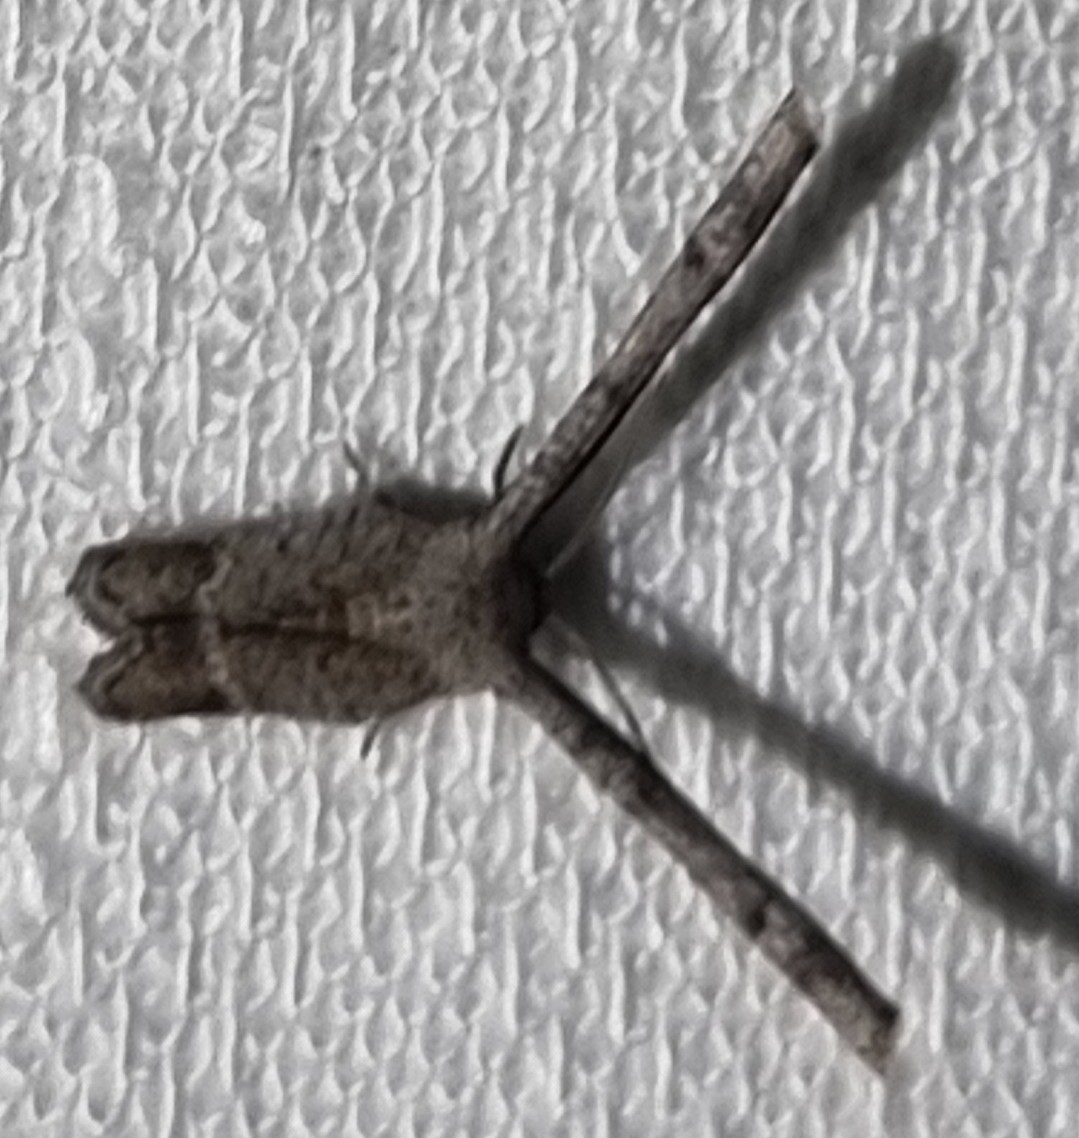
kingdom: Animalia
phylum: Arthropoda
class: Insecta
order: Lepidoptera
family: Uraniidae
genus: Phazaca
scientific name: Phazaca interrupta
